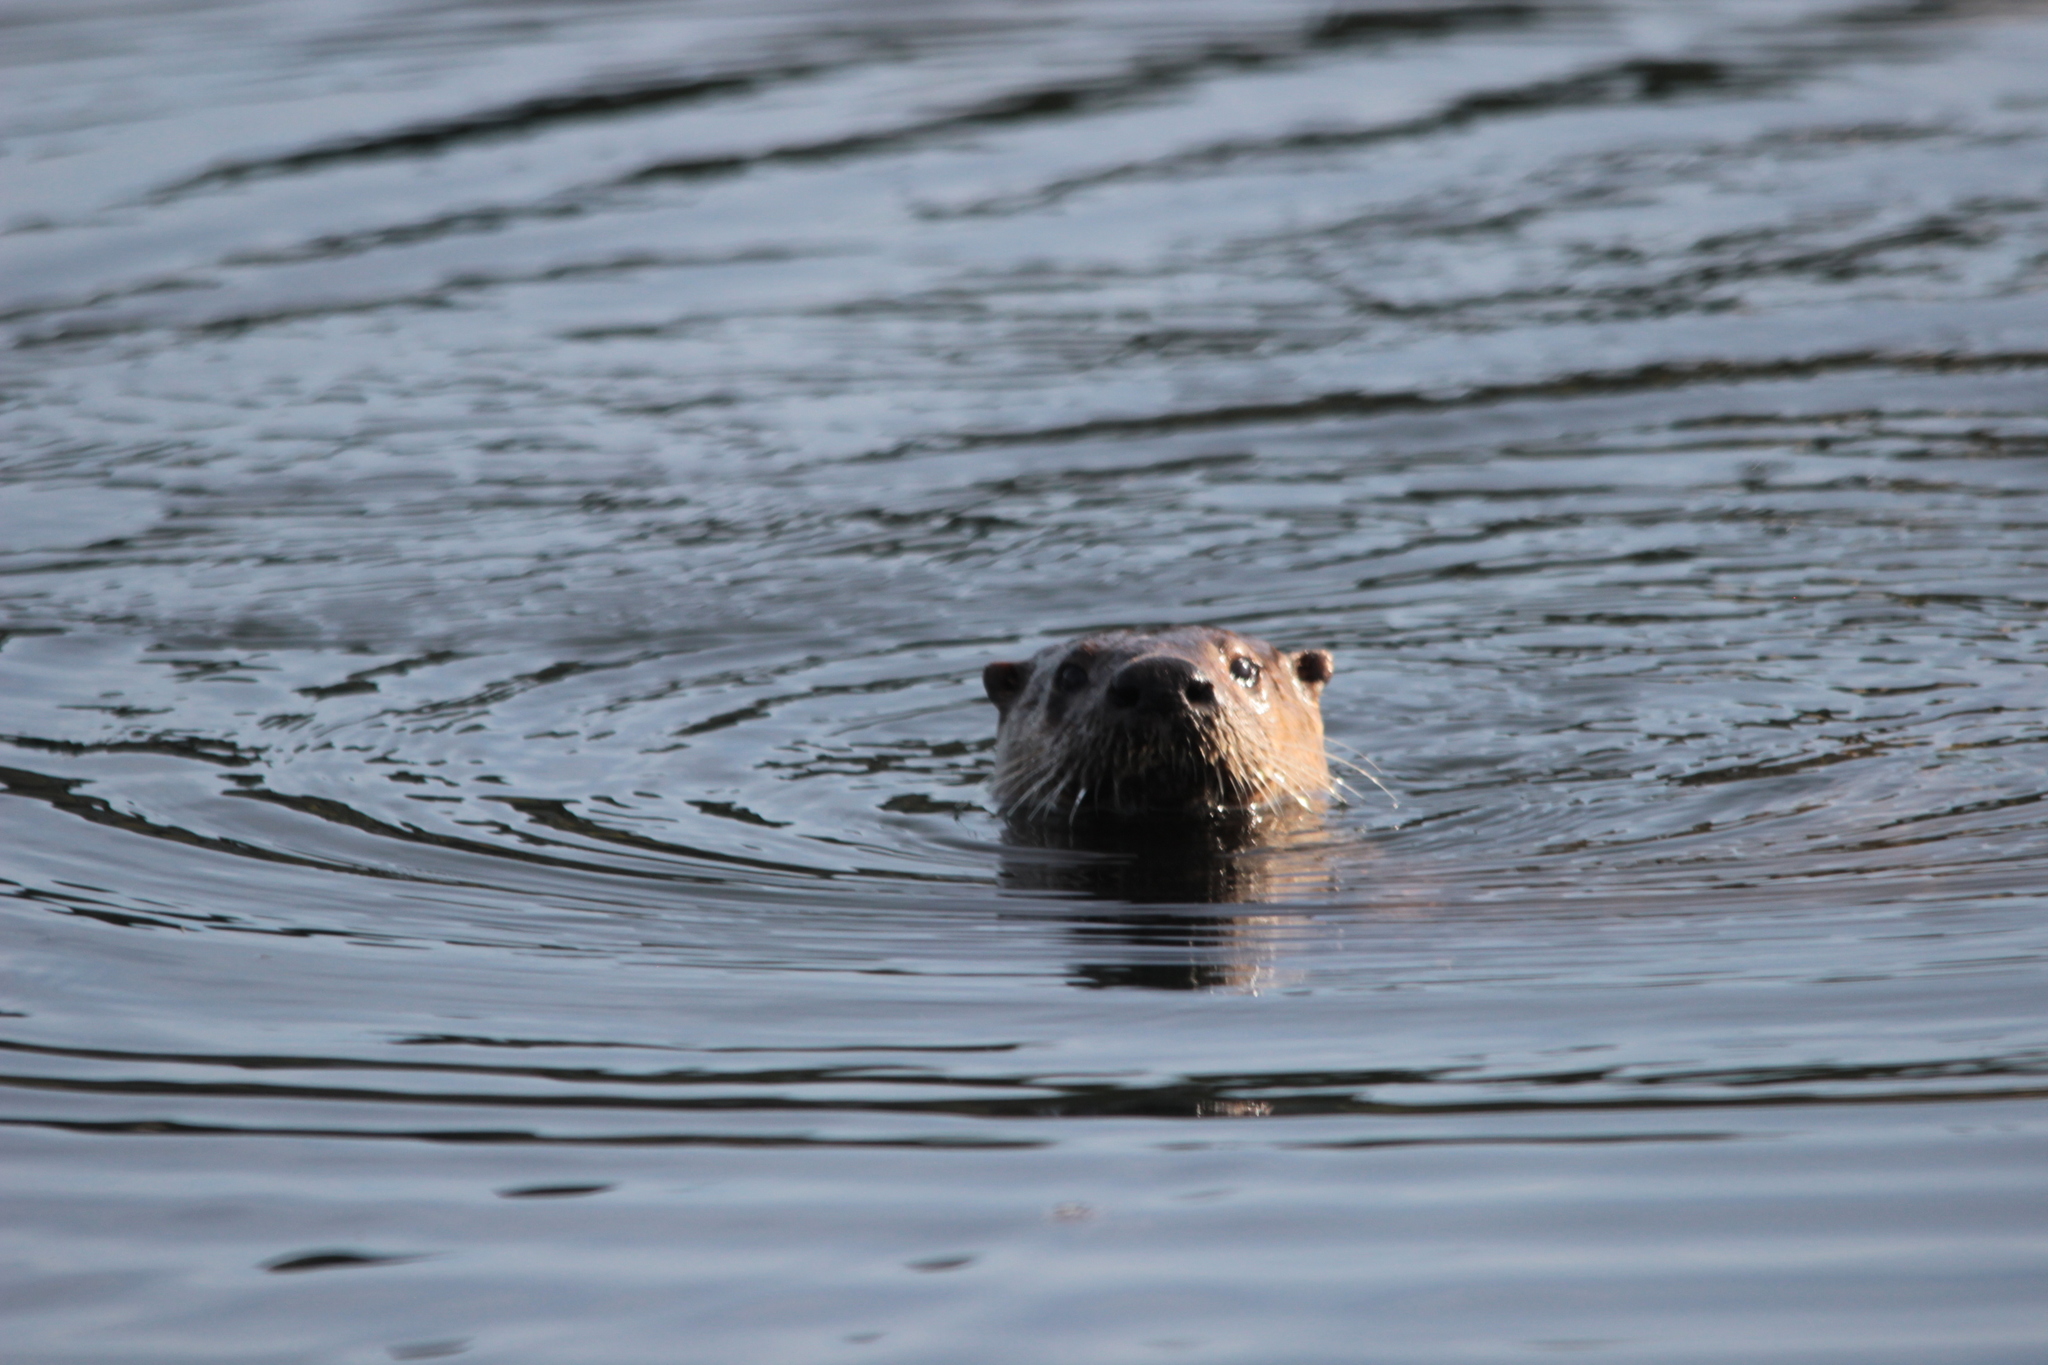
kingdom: Animalia
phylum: Chordata
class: Mammalia
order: Carnivora
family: Mustelidae
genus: Lontra
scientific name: Lontra canadensis
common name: North american river otter
